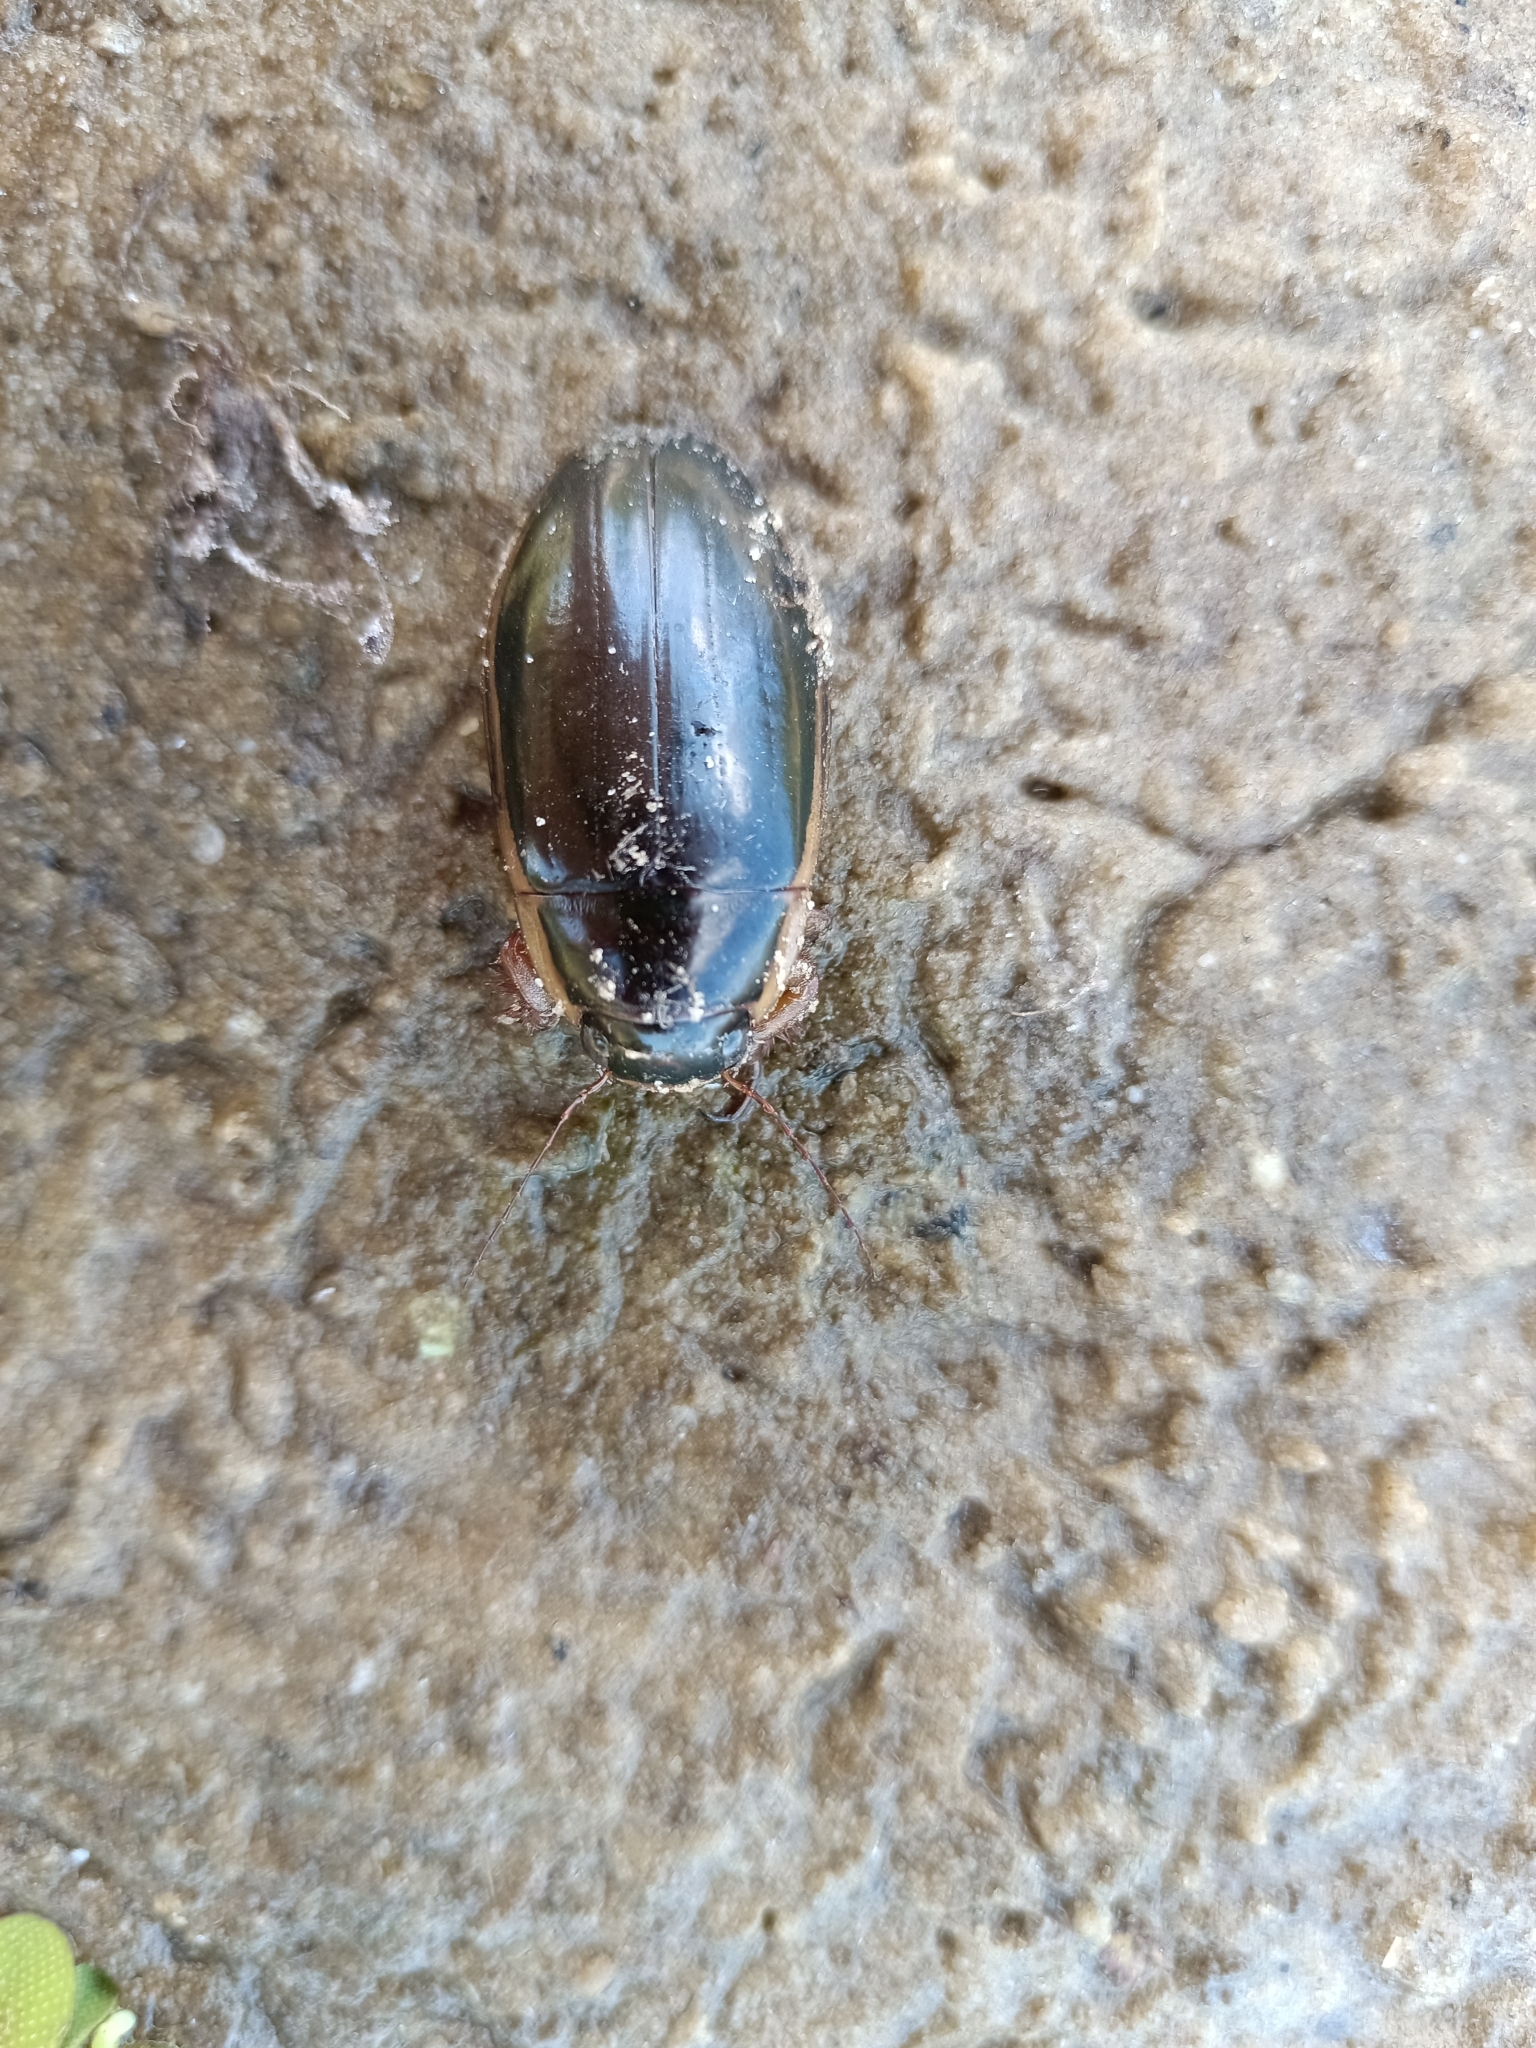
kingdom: Animalia
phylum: Arthropoda
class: Insecta
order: Coleoptera
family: Dytiscidae
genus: Dytiscus
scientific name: Dytiscus dimidiatus
